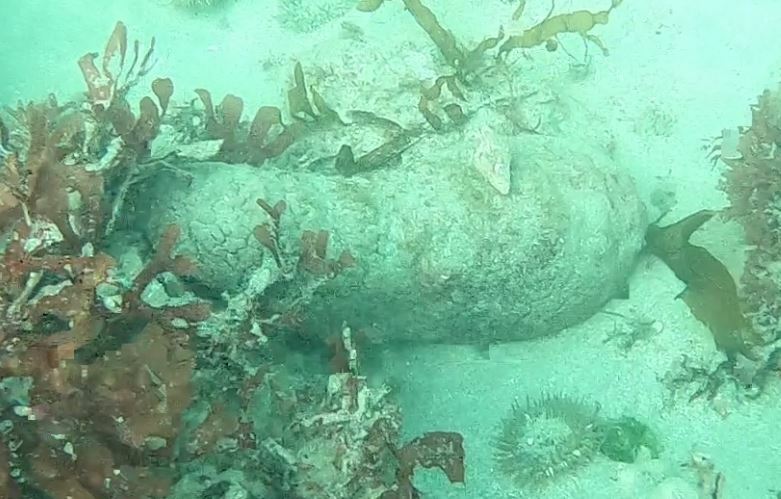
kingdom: Animalia
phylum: Mollusca
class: Polyplacophora
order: Chitonida
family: Acanthochitonidae
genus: Cryptochiton
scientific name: Cryptochiton stelleri
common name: Giant pacific chiton
